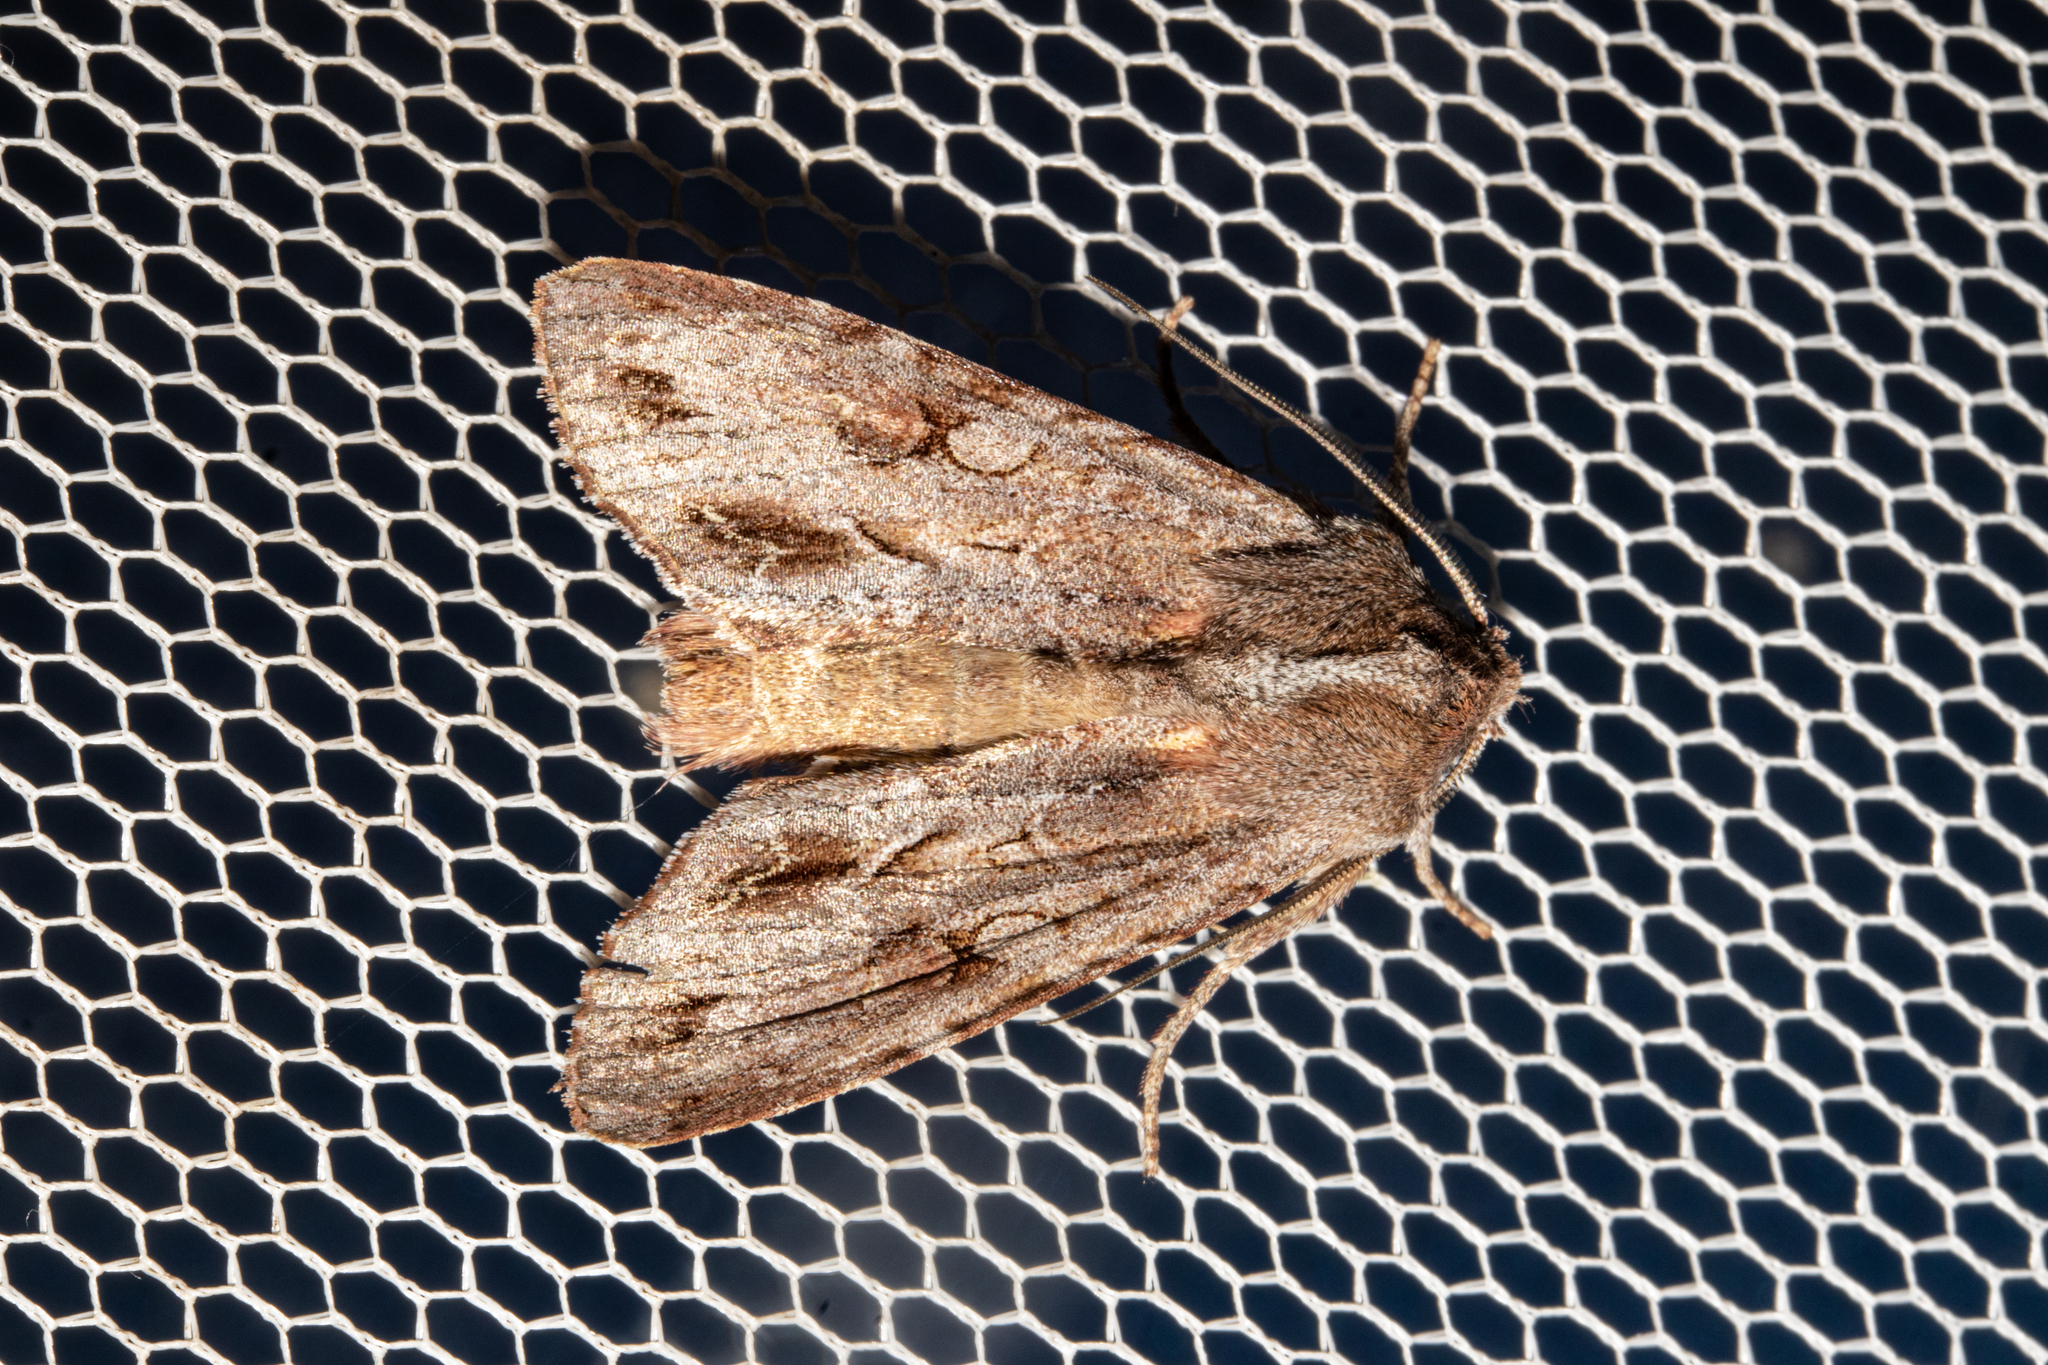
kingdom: Animalia
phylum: Arthropoda
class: Insecta
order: Lepidoptera
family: Noctuidae
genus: Ichneutica
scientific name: Ichneutica
